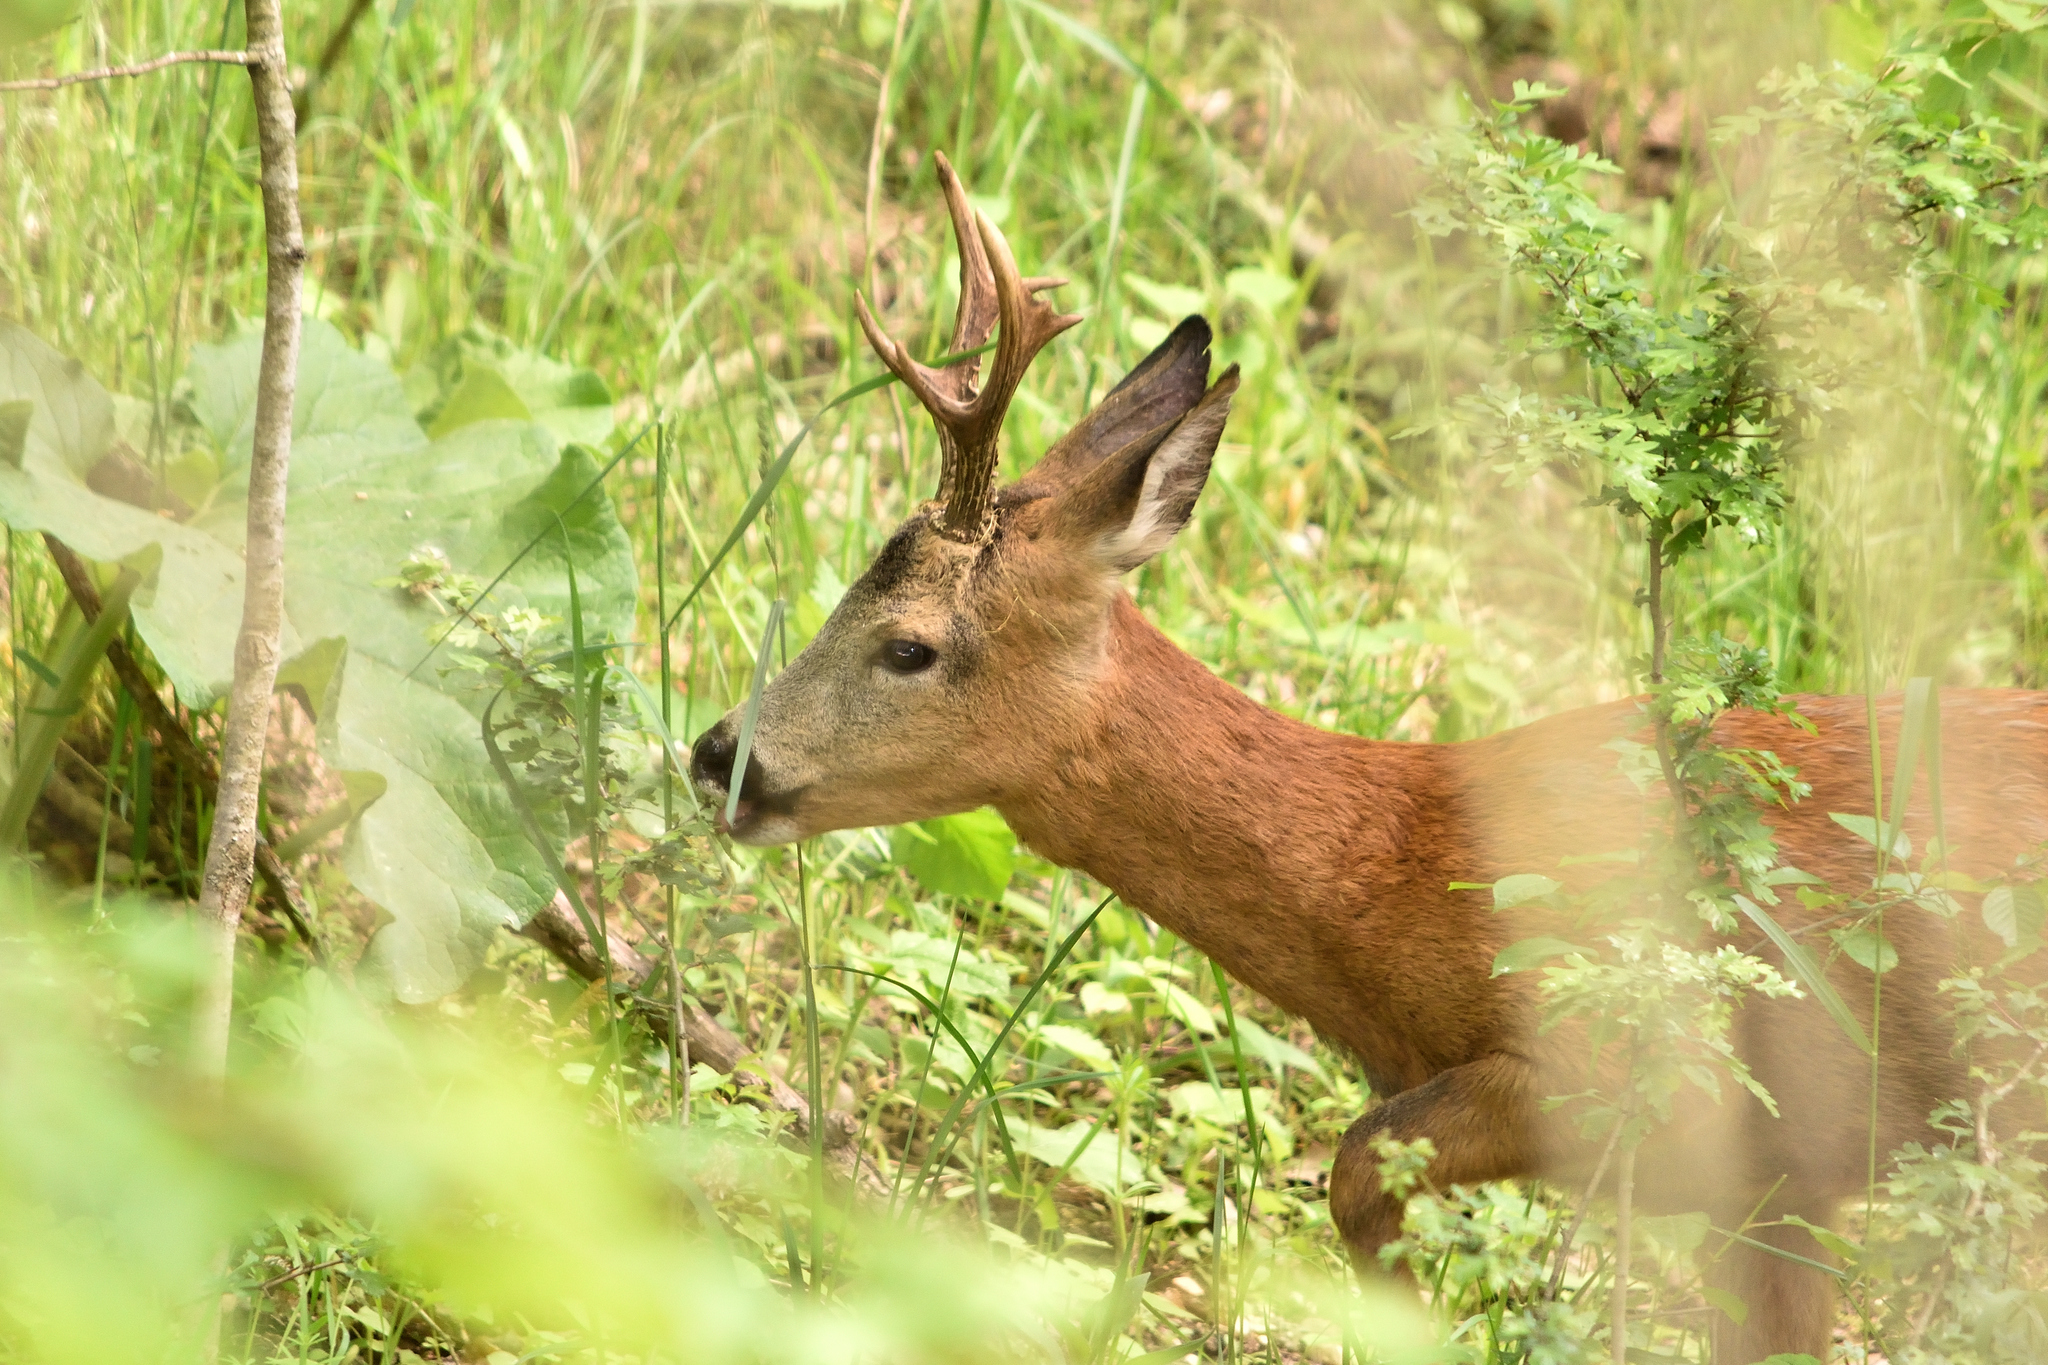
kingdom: Animalia
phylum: Chordata
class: Mammalia
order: Artiodactyla
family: Cervidae
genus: Capreolus
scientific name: Capreolus capreolus
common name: Western roe deer
